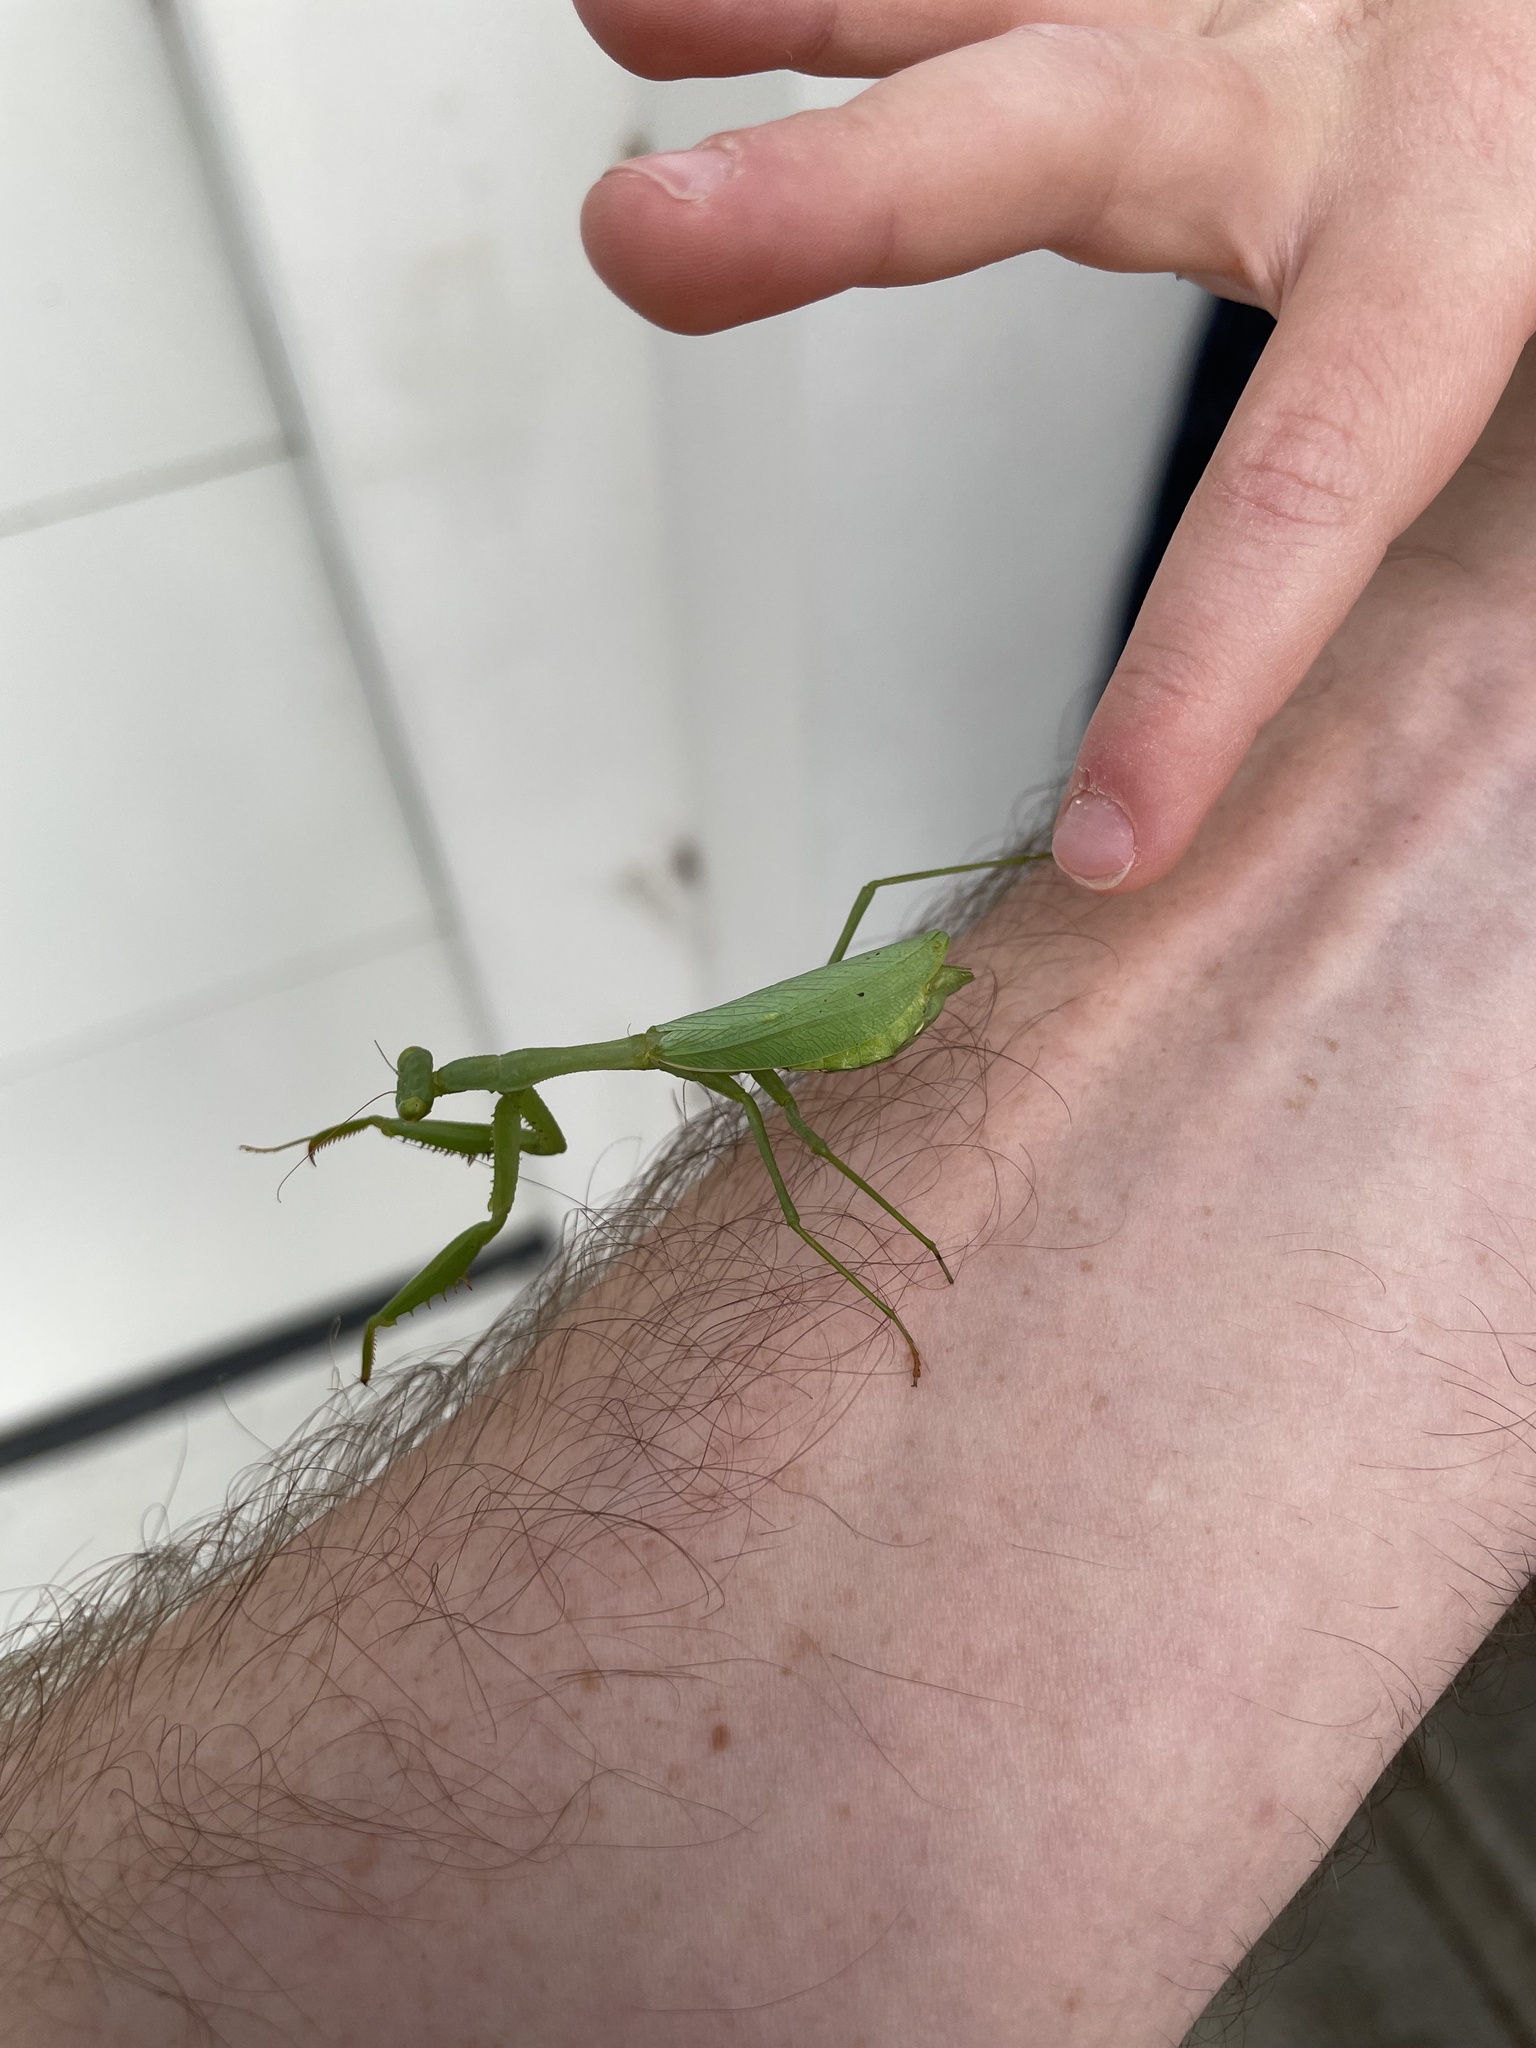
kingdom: Animalia
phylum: Arthropoda
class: Insecta
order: Mantodea
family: Miomantidae
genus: Miomantis
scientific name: Miomantis caffra
